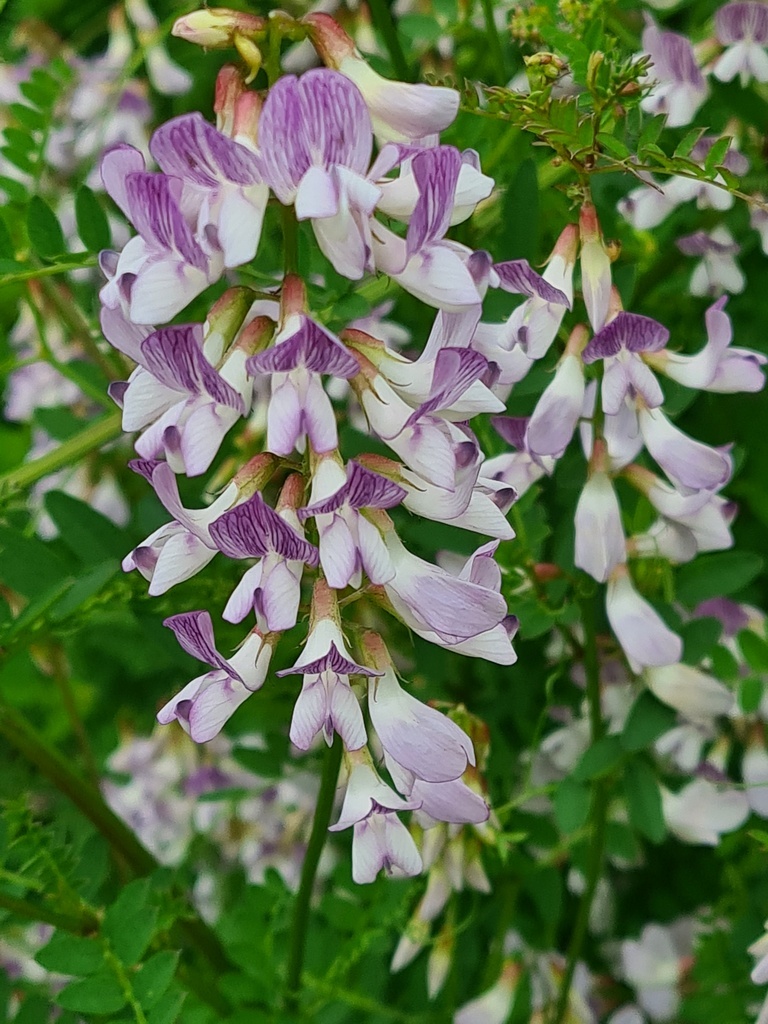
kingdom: Plantae
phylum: Tracheophyta
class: Magnoliopsida
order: Fabales
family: Fabaceae
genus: Vicia
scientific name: Vicia sylvatica
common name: Wood vetch
